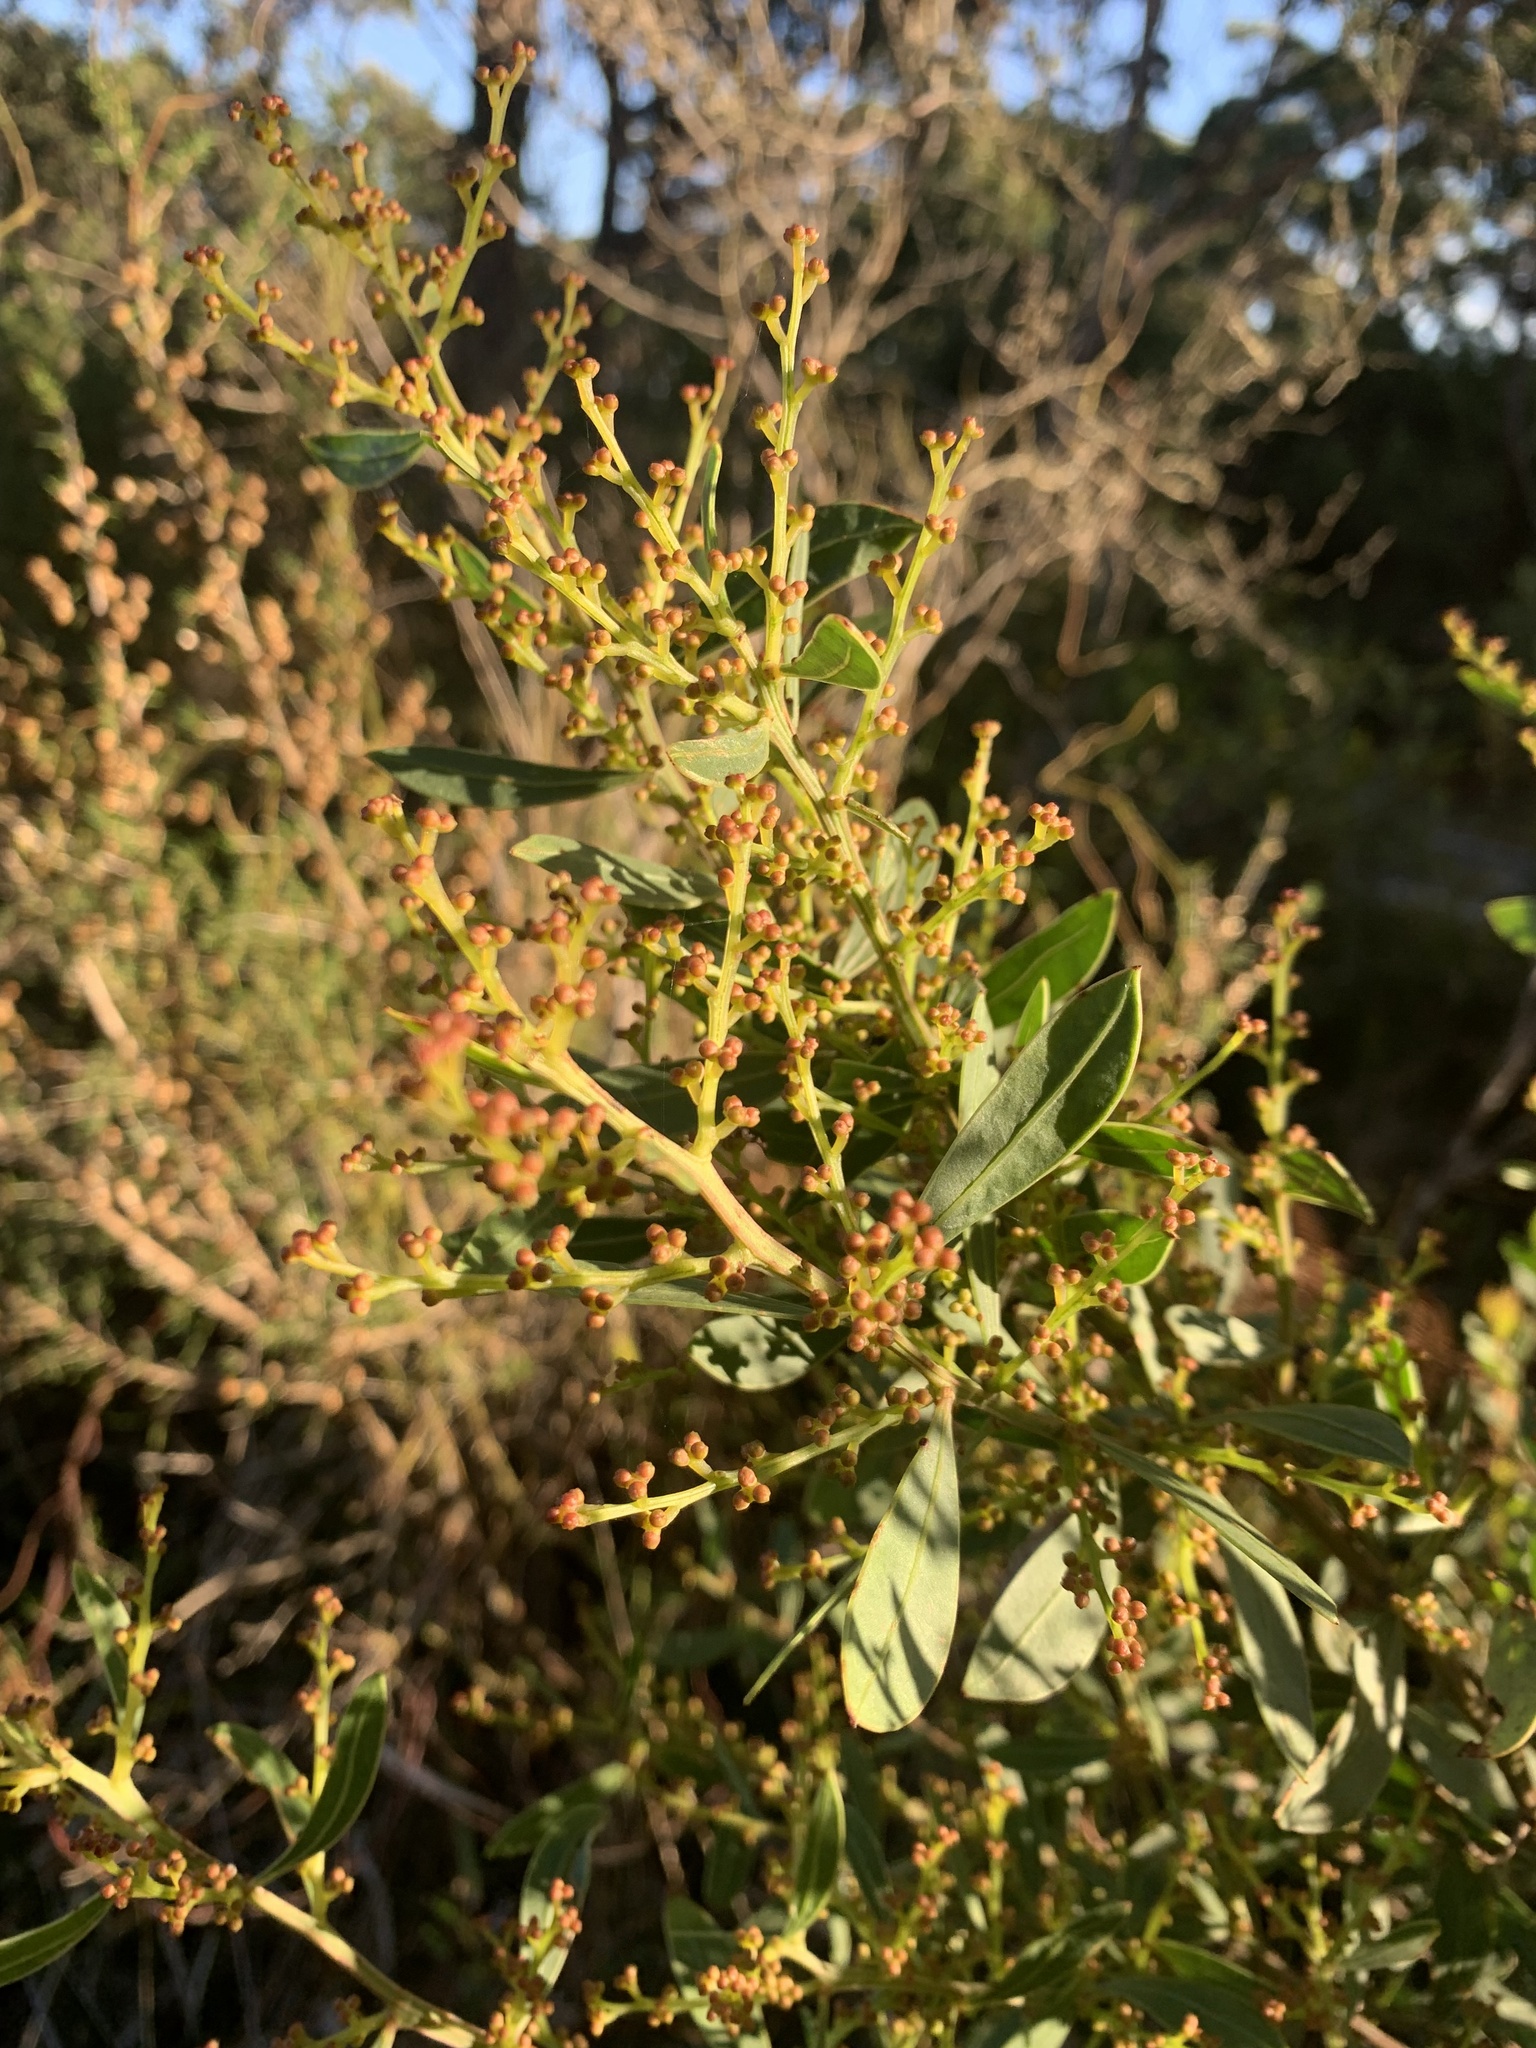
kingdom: Plantae
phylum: Tracheophyta
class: Magnoliopsida
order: Fabales
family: Fabaceae
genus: Acacia
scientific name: Acacia myrtifolia
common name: Myrtle wattle
